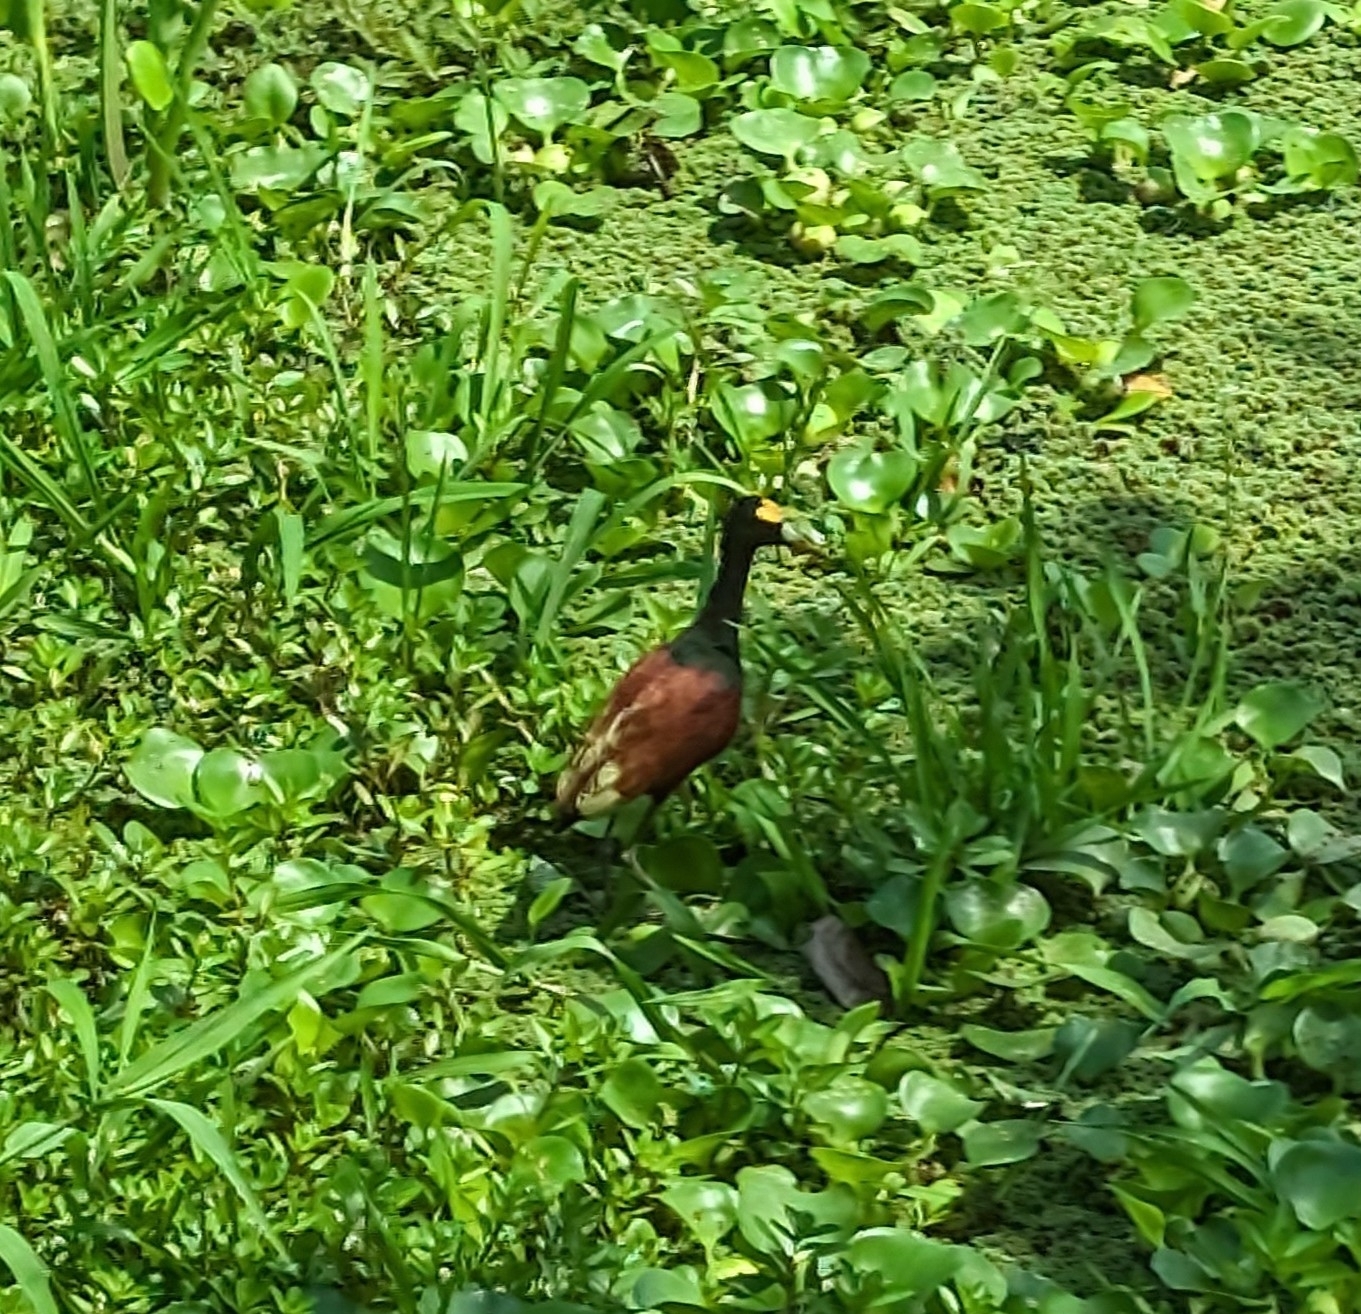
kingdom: Animalia
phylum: Chordata
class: Aves
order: Charadriiformes
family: Jacanidae
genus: Jacana
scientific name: Jacana spinosa
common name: Northern jacana
